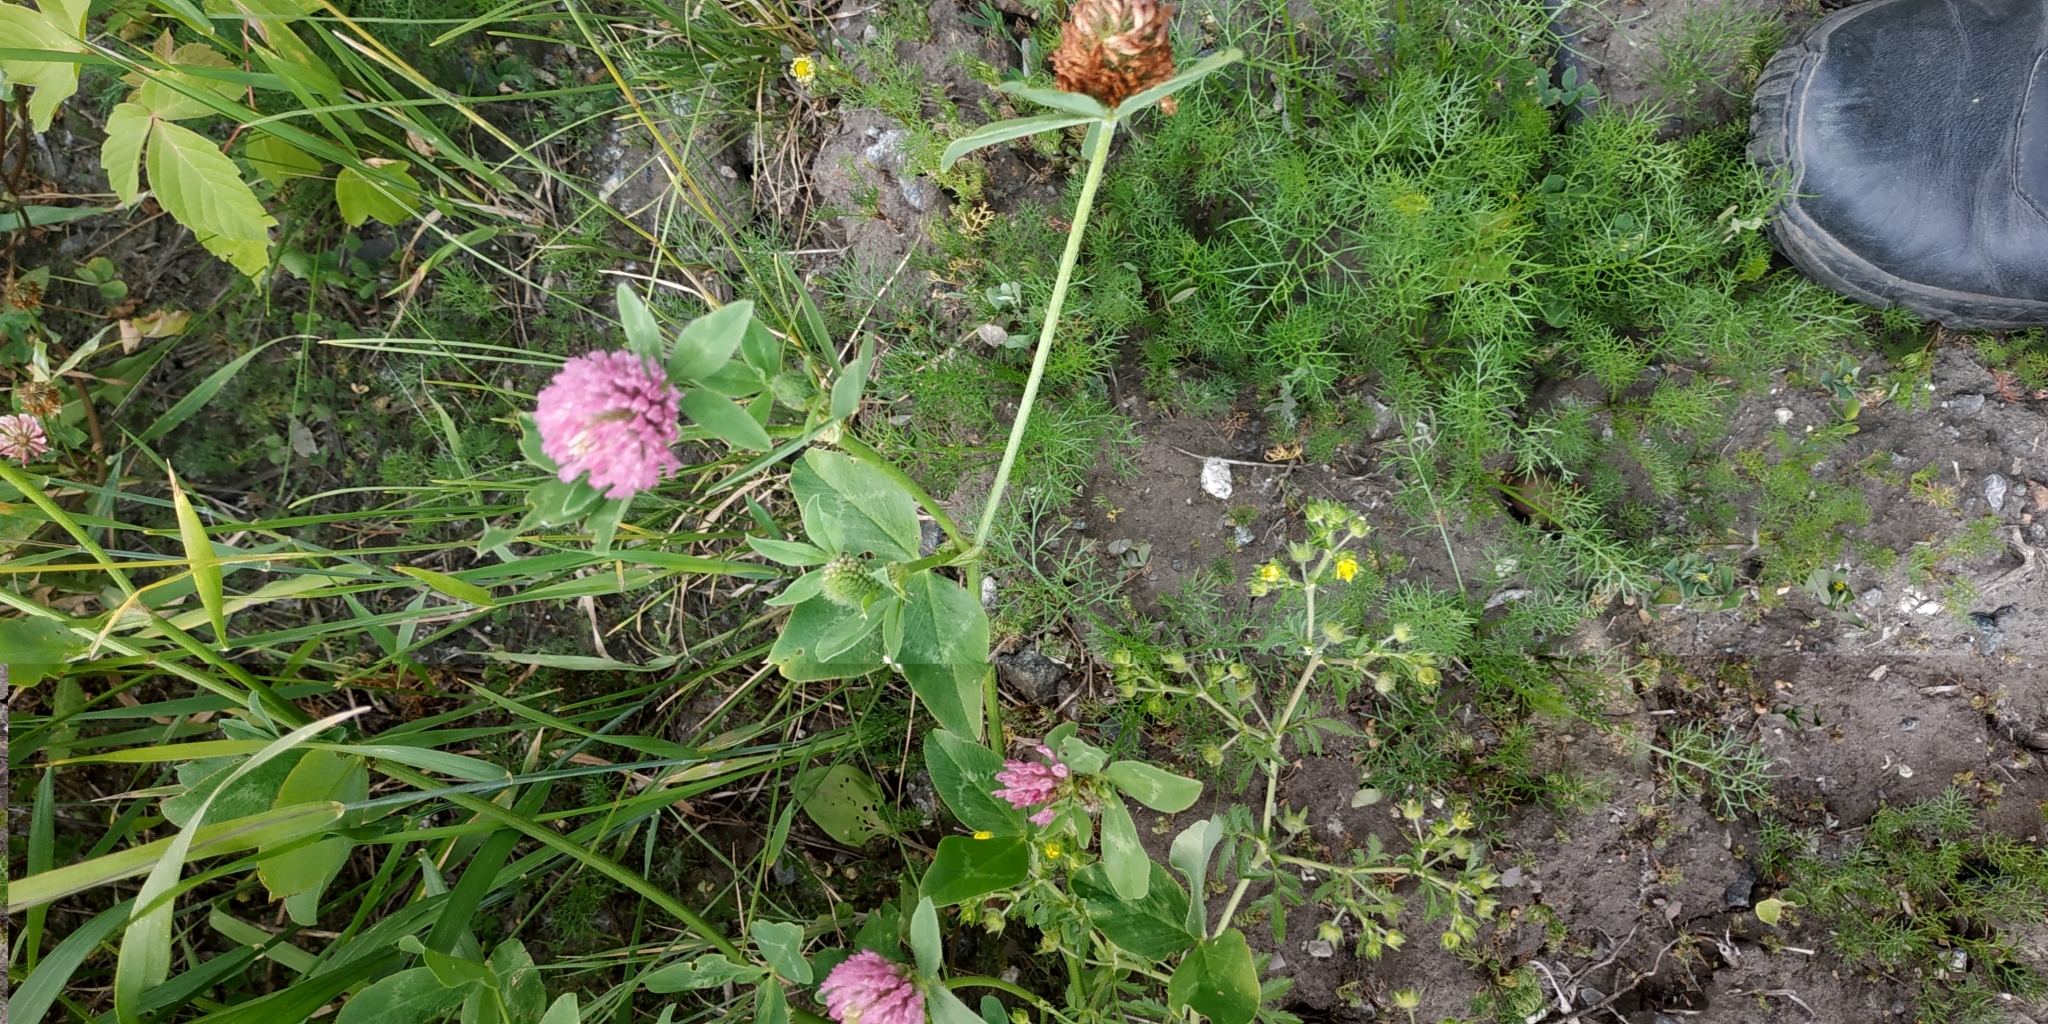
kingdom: Plantae
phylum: Tracheophyta
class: Magnoliopsida
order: Fabales
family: Fabaceae
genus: Trifolium
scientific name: Trifolium pratense
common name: Red clover
